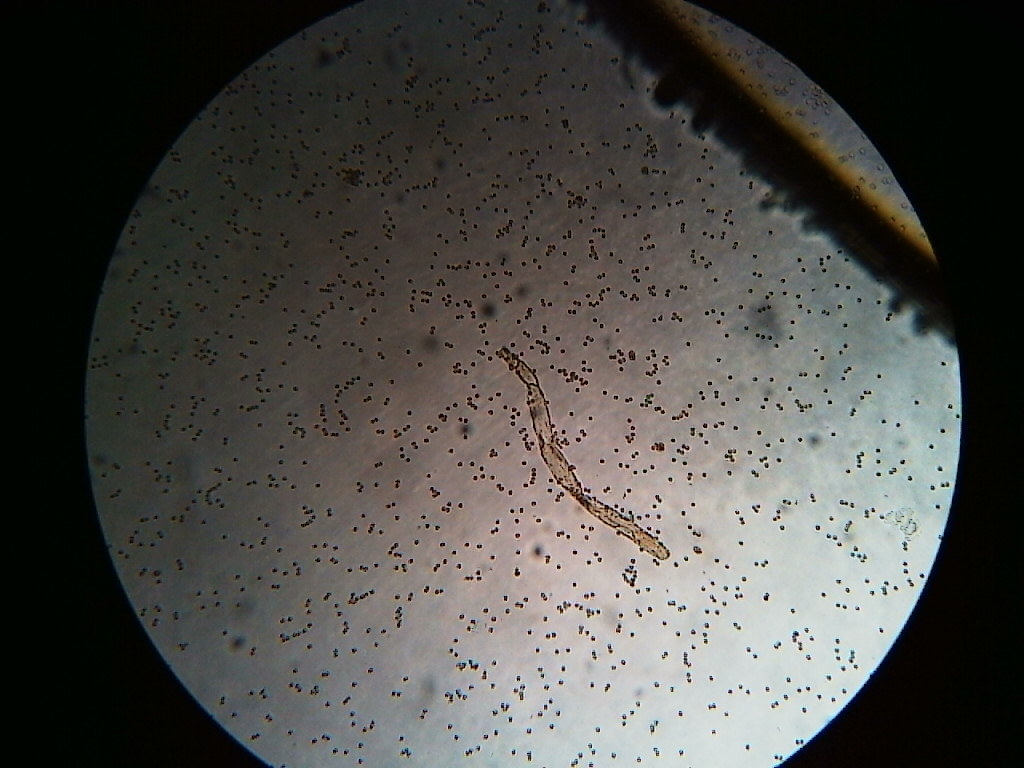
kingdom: Protozoa
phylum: Mycetozoa
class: Myxomycetes
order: Cribrariales
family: Tubiferaceae
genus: Tubifera
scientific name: Tubifera magna
